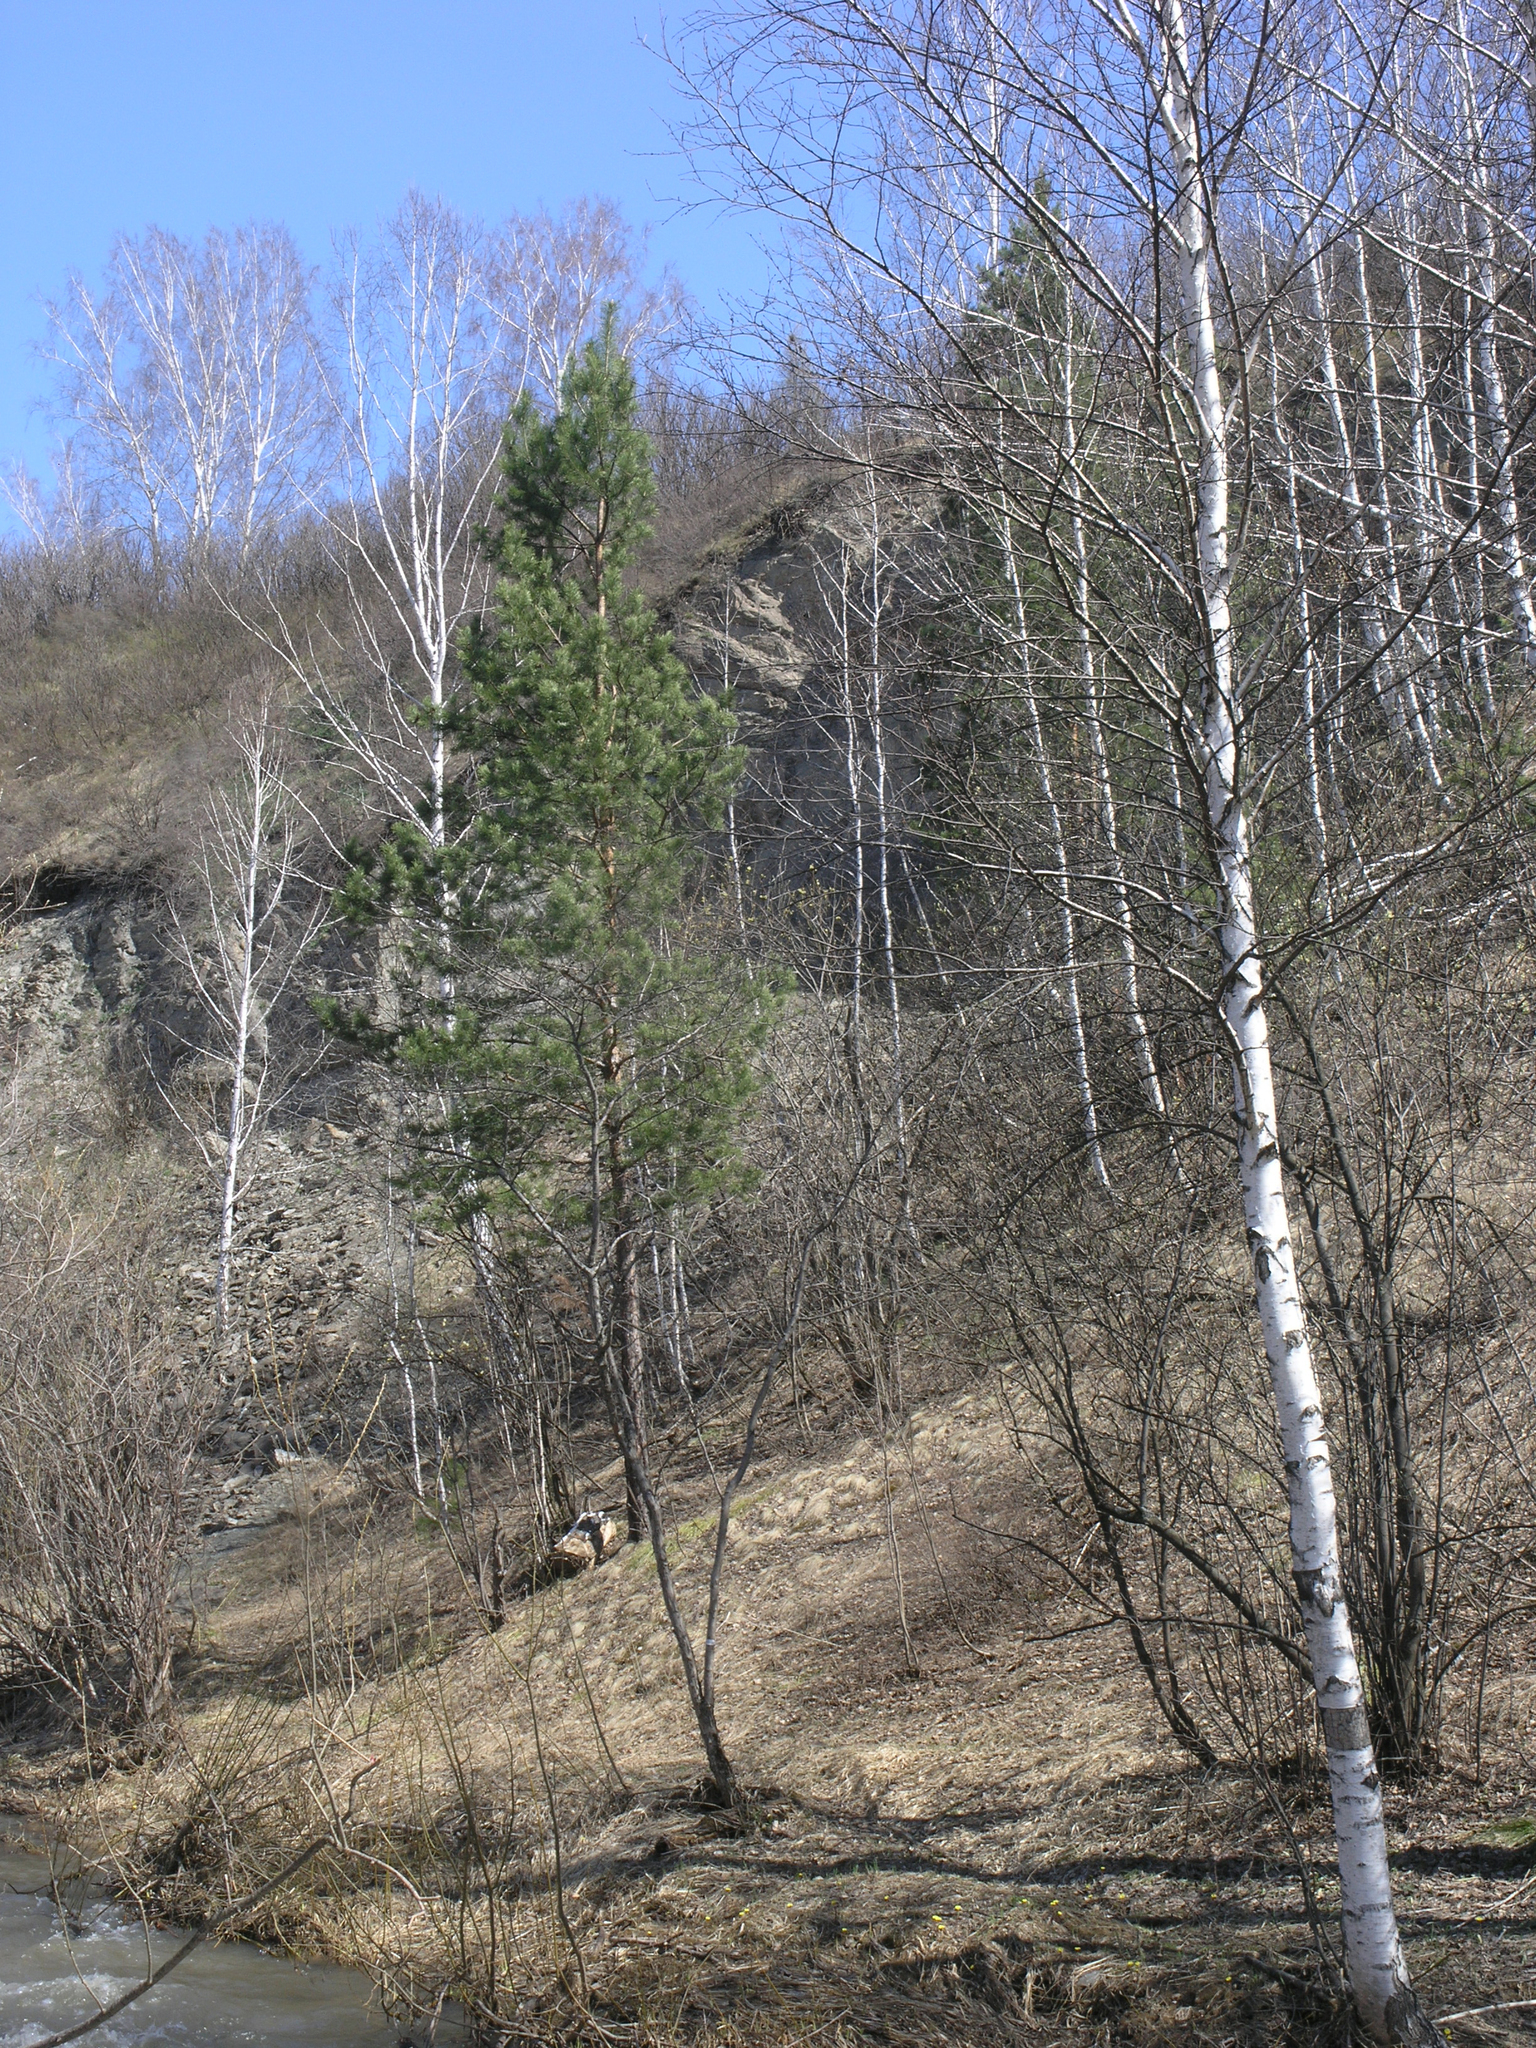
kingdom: Plantae
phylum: Tracheophyta
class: Pinopsida
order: Pinales
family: Pinaceae
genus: Pinus
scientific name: Pinus sylvestris
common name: Scots pine
